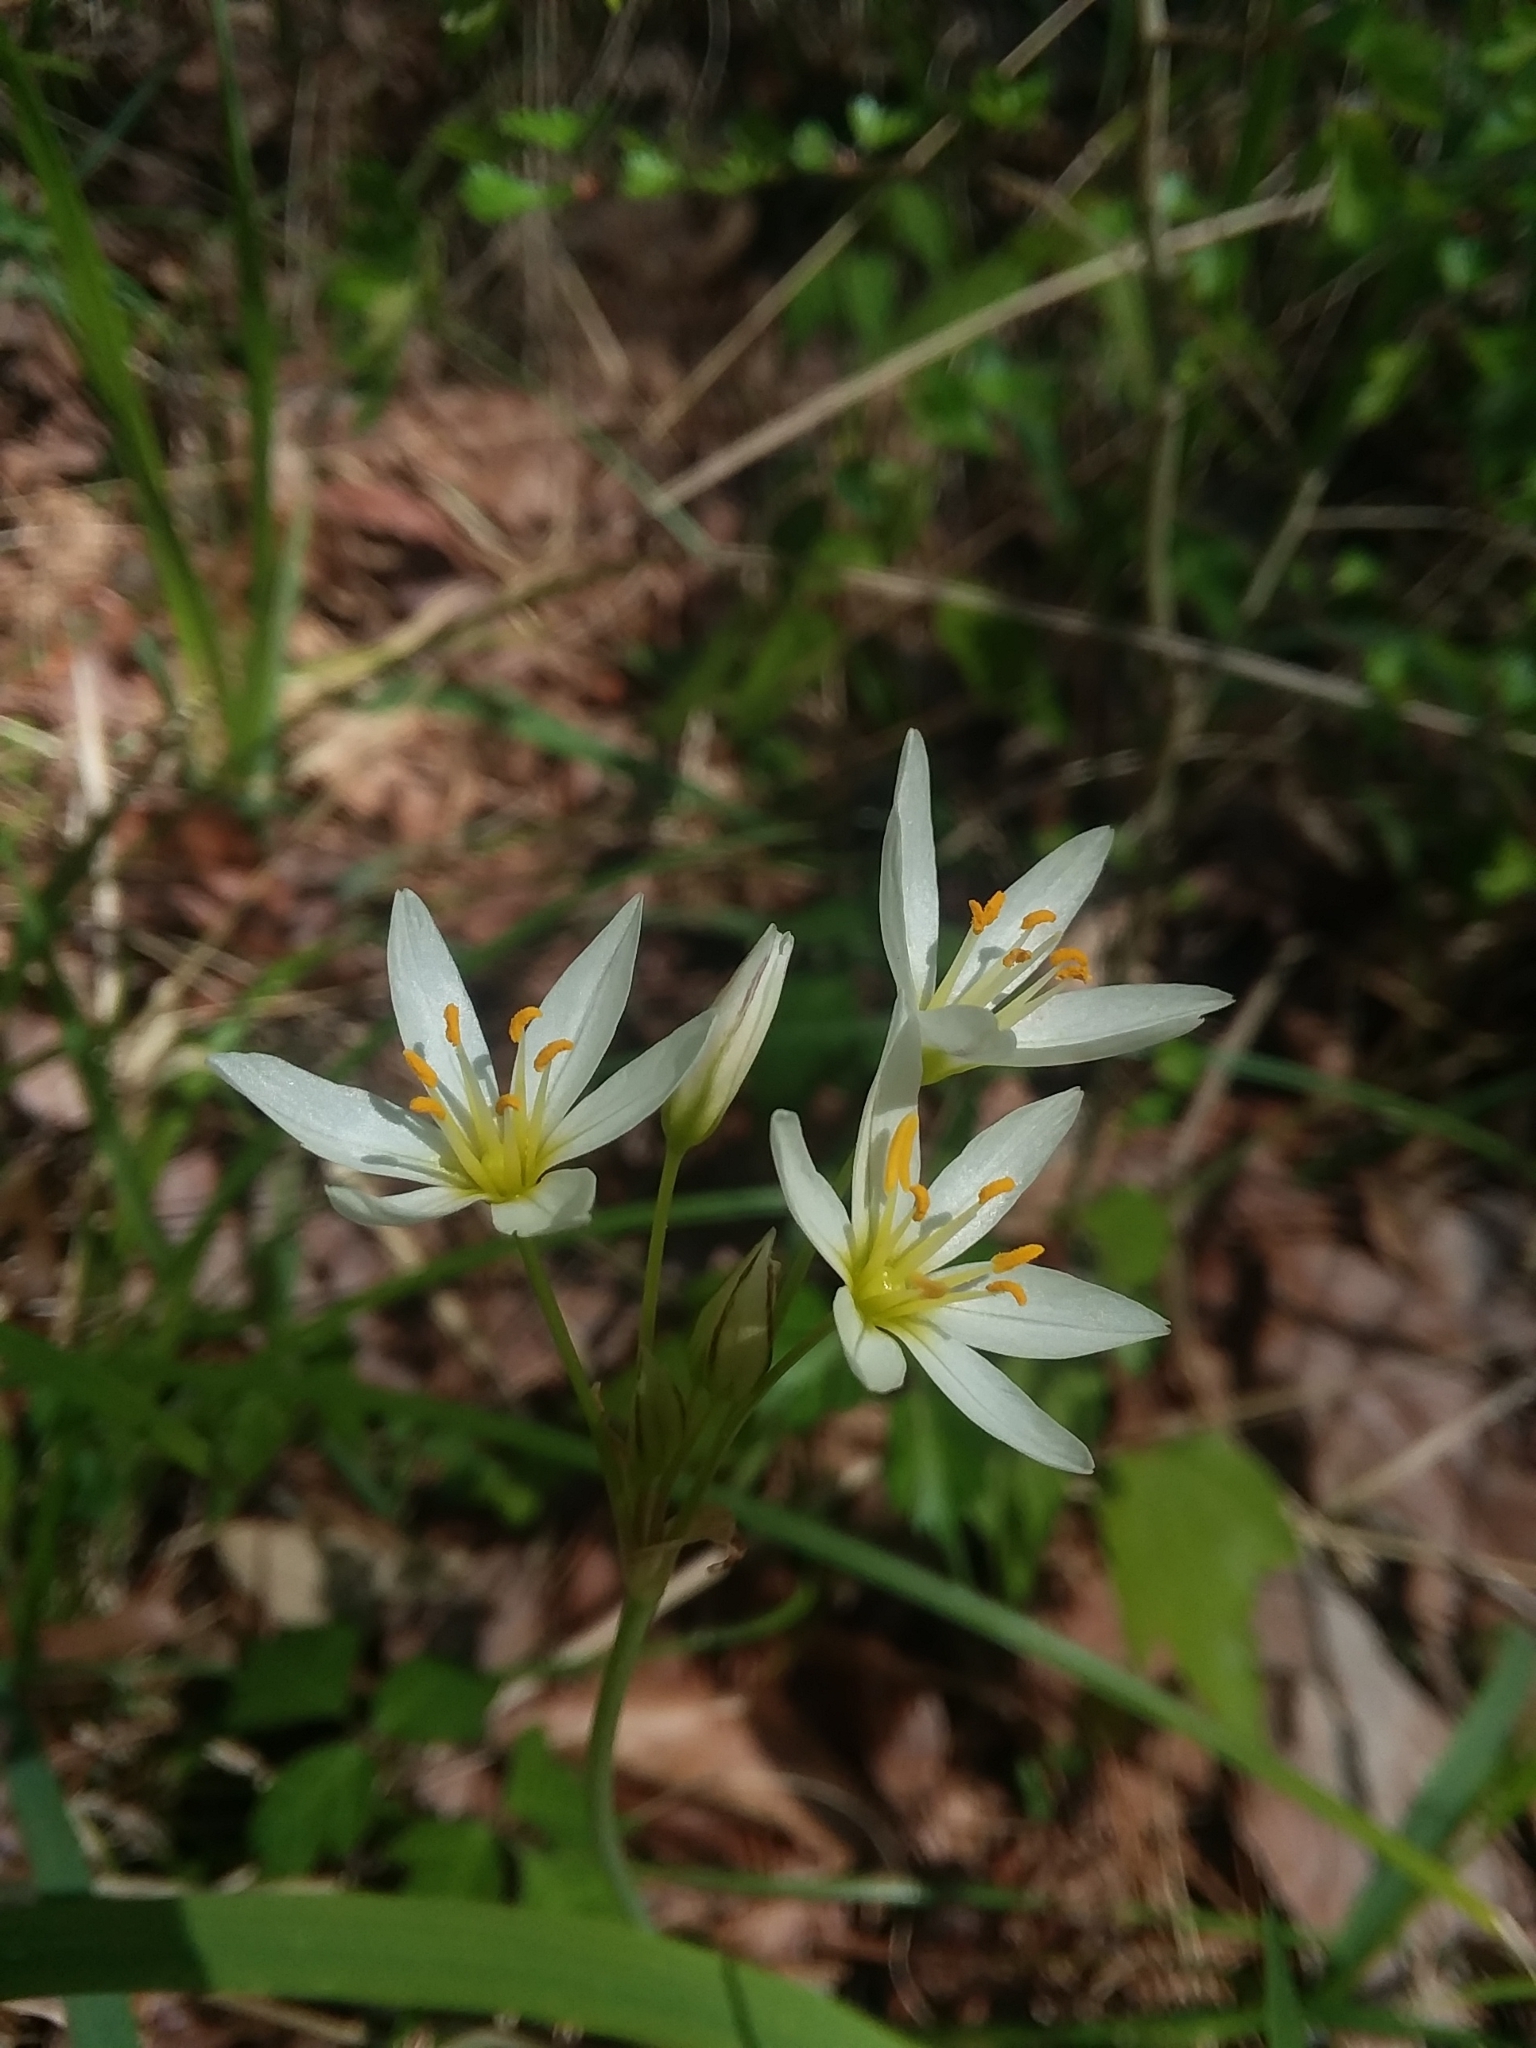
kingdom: Plantae
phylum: Tracheophyta
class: Liliopsida
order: Asparagales
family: Amaryllidaceae
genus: Nothoscordum
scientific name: Nothoscordum bivalve
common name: Crow-poison
